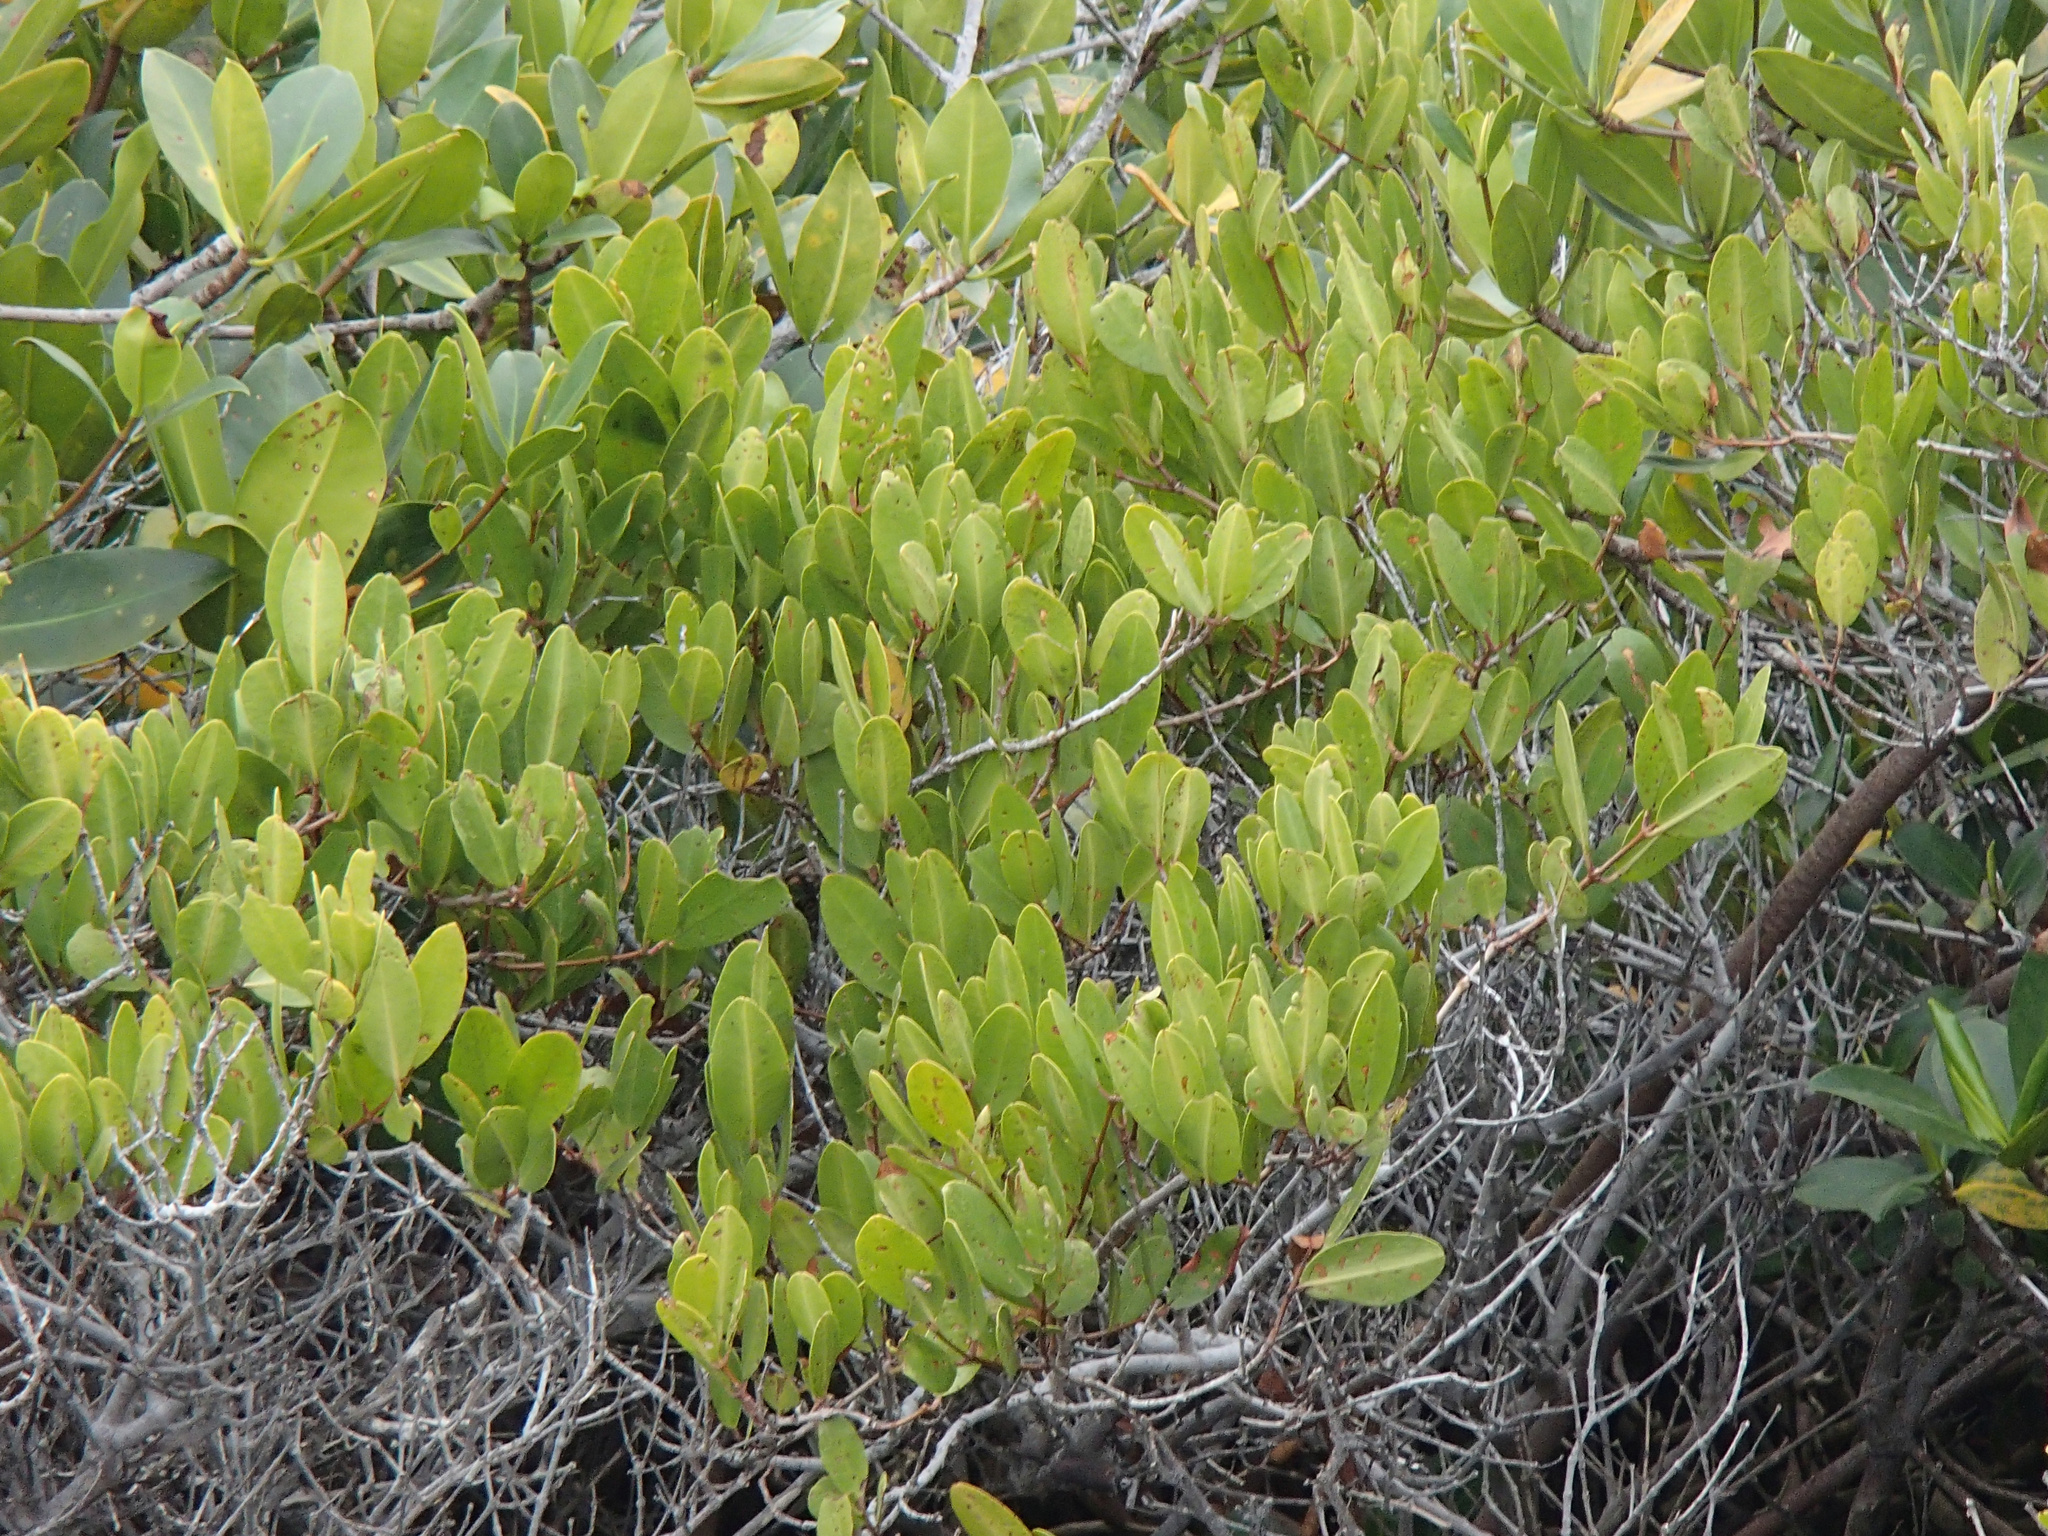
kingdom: Plantae
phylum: Tracheophyta
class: Magnoliopsida
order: Myrtales
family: Combretaceae
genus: Laguncularia
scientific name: Laguncularia racemosa
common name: White mangrove
